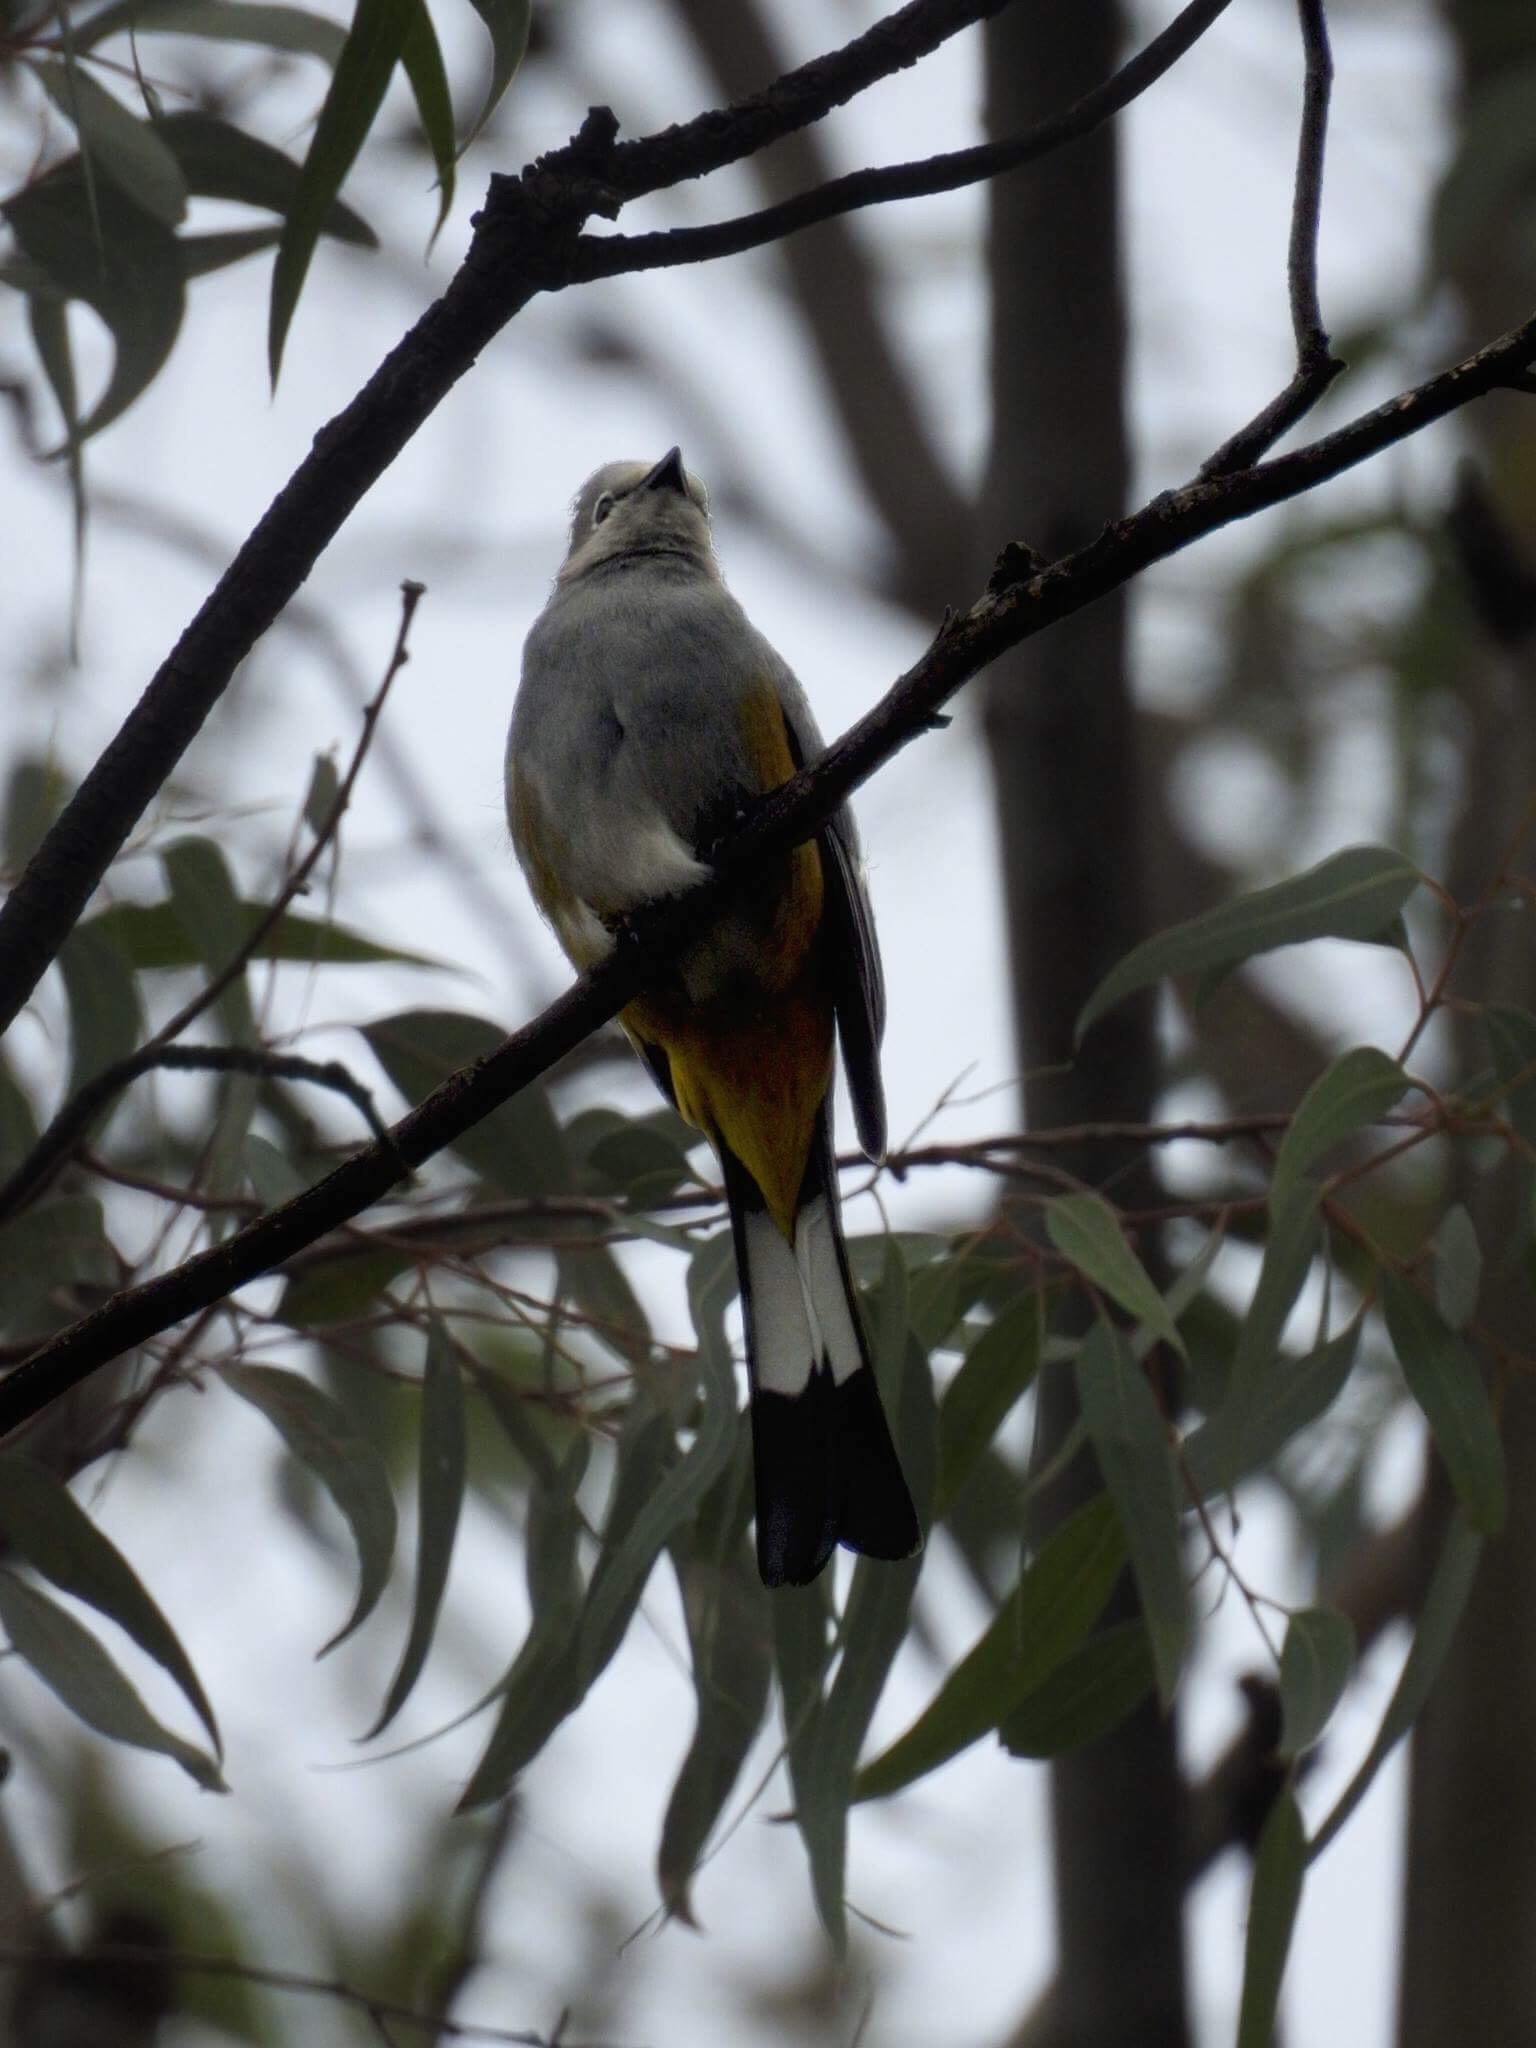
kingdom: Animalia
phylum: Chordata
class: Aves
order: Passeriformes
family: Ptilogonatidae
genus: Ptilogonys
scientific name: Ptilogonys cinereus
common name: Gray silky-flycatcher
